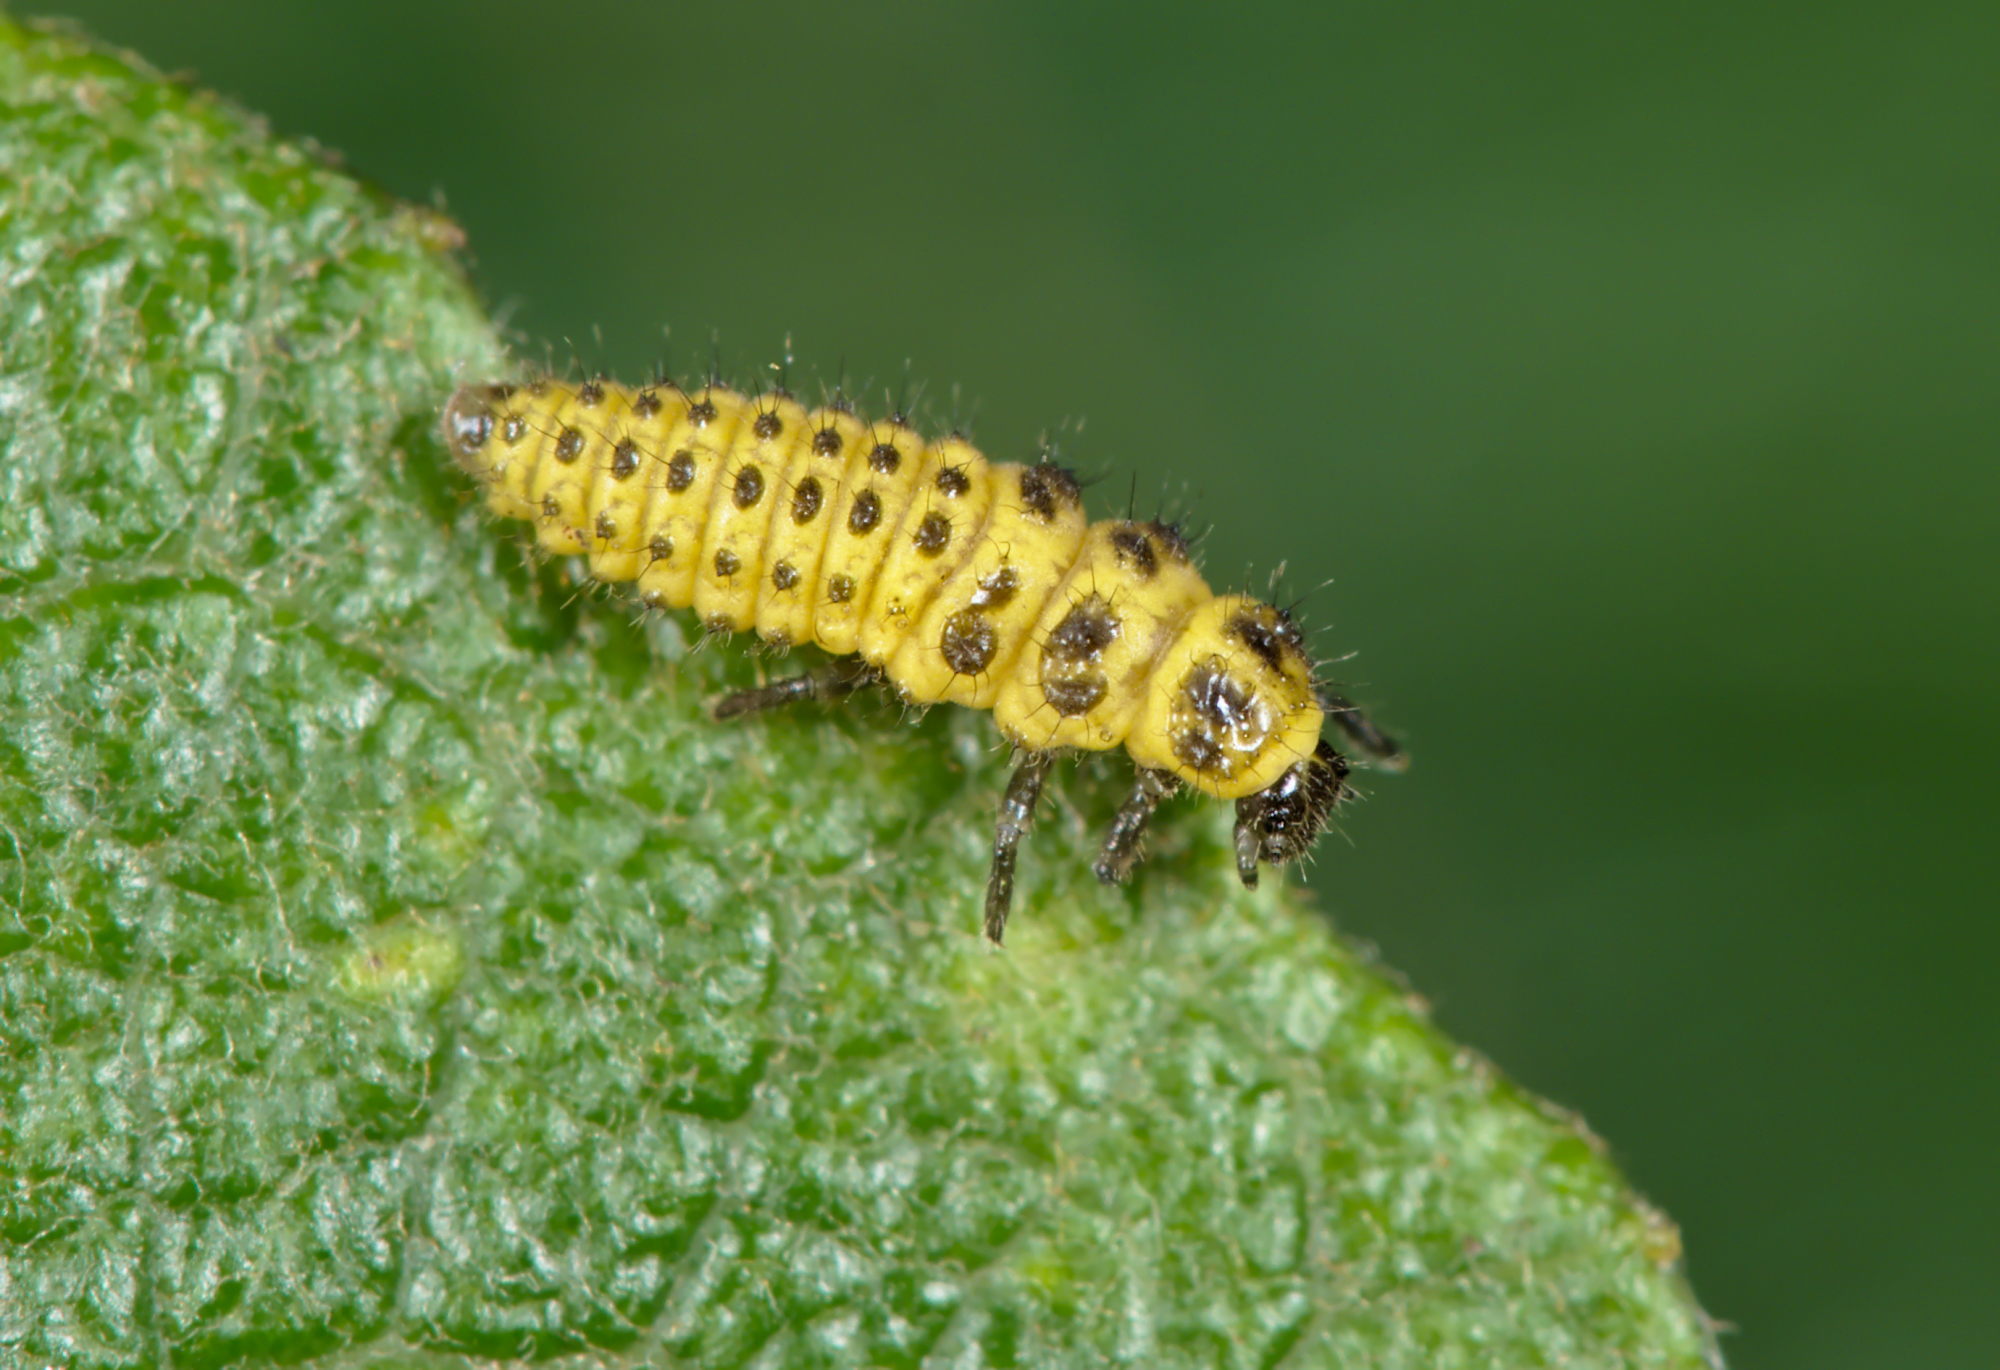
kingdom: Animalia
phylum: Arthropoda
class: Insecta
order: Coleoptera
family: Coccinellidae
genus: Psyllobora
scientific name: Psyllobora vigintiduopunctata
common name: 22-spot ladybird
